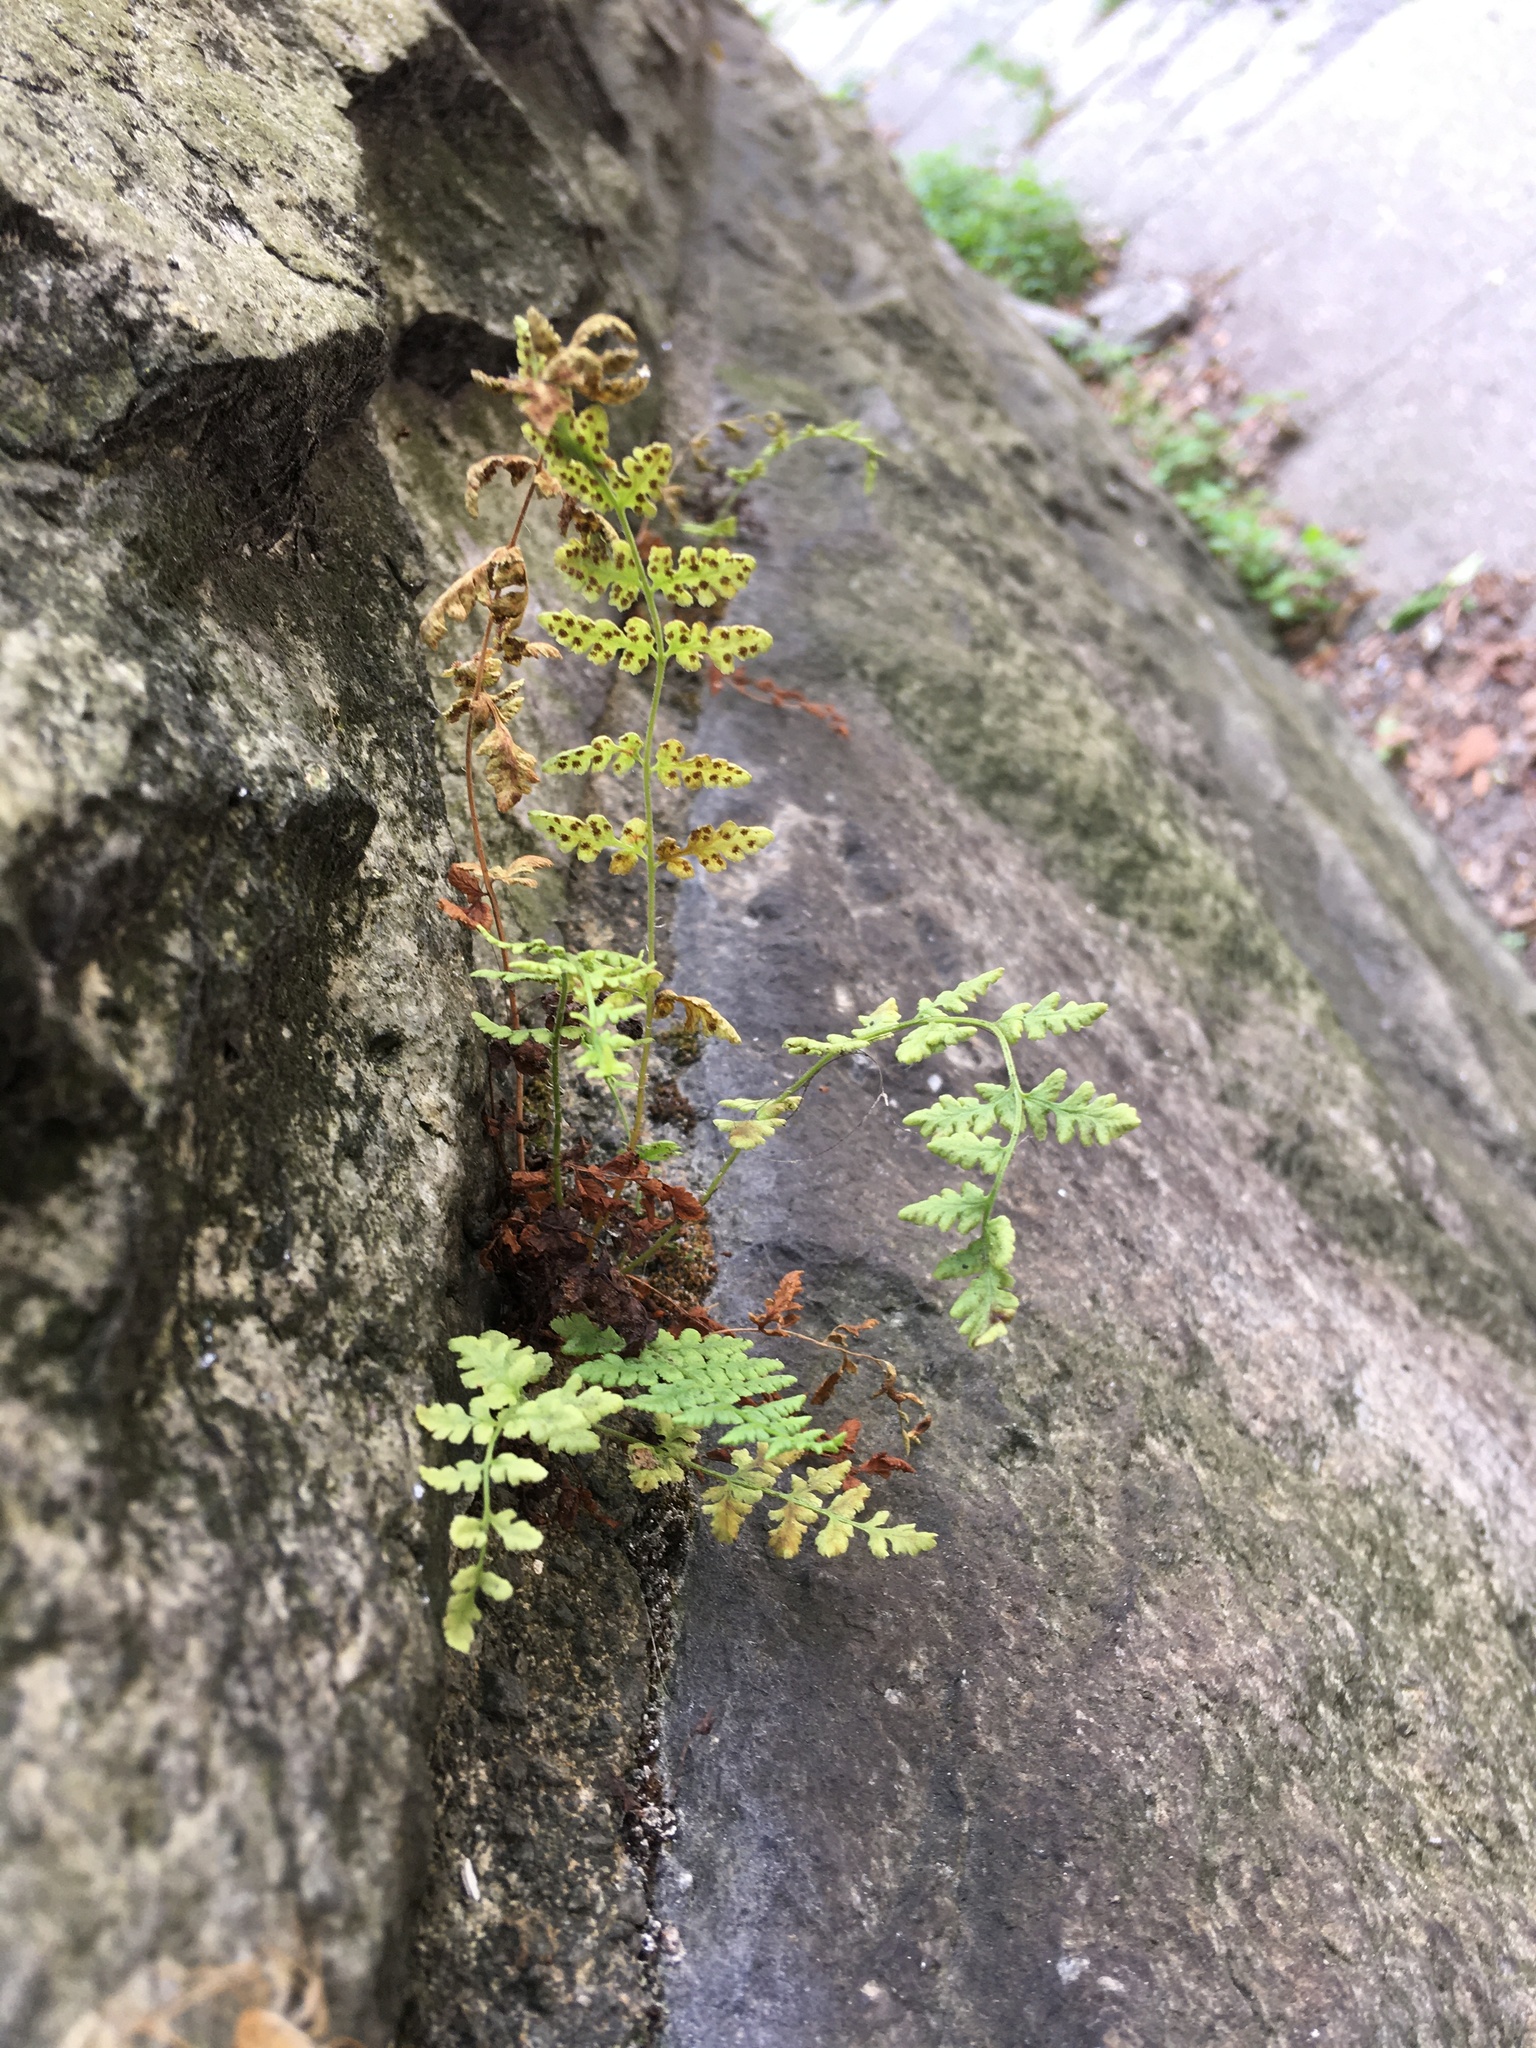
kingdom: Plantae
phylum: Tracheophyta
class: Polypodiopsida
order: Polypodiales
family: Woodsiaceae
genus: Physematium
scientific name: Physematium obtusum
